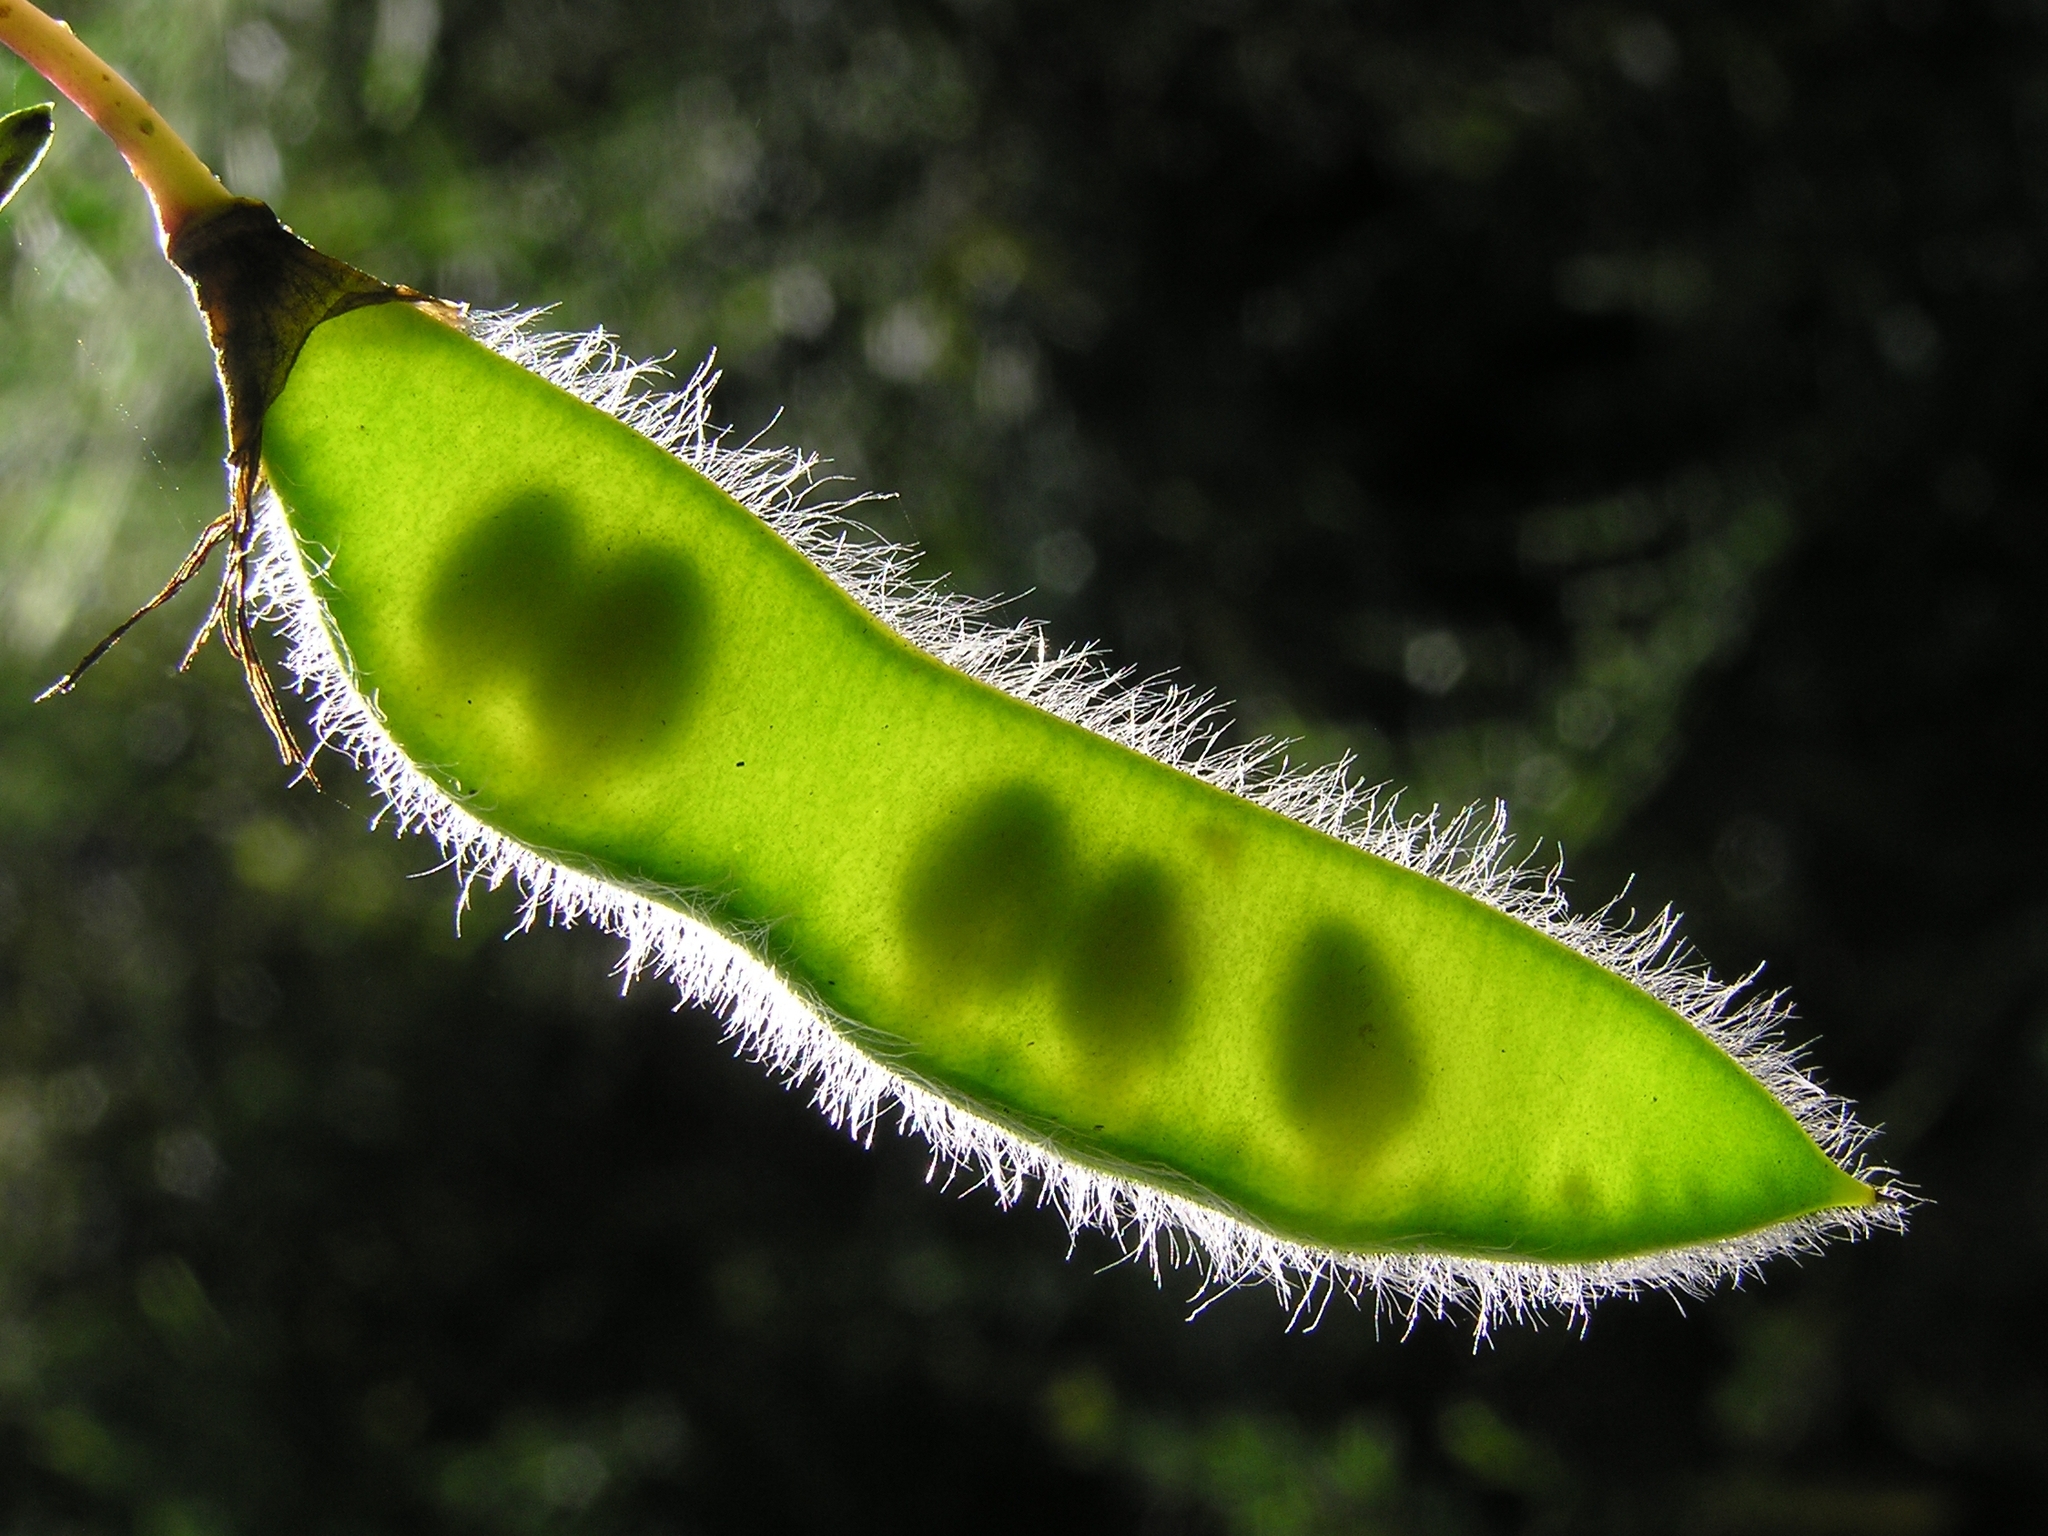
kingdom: Plantae
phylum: Tracheophyta
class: Magnoliopsida
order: Fabales
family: Fabaceae
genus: Cytisus
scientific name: Cytisus scoparius
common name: Scotch broom
